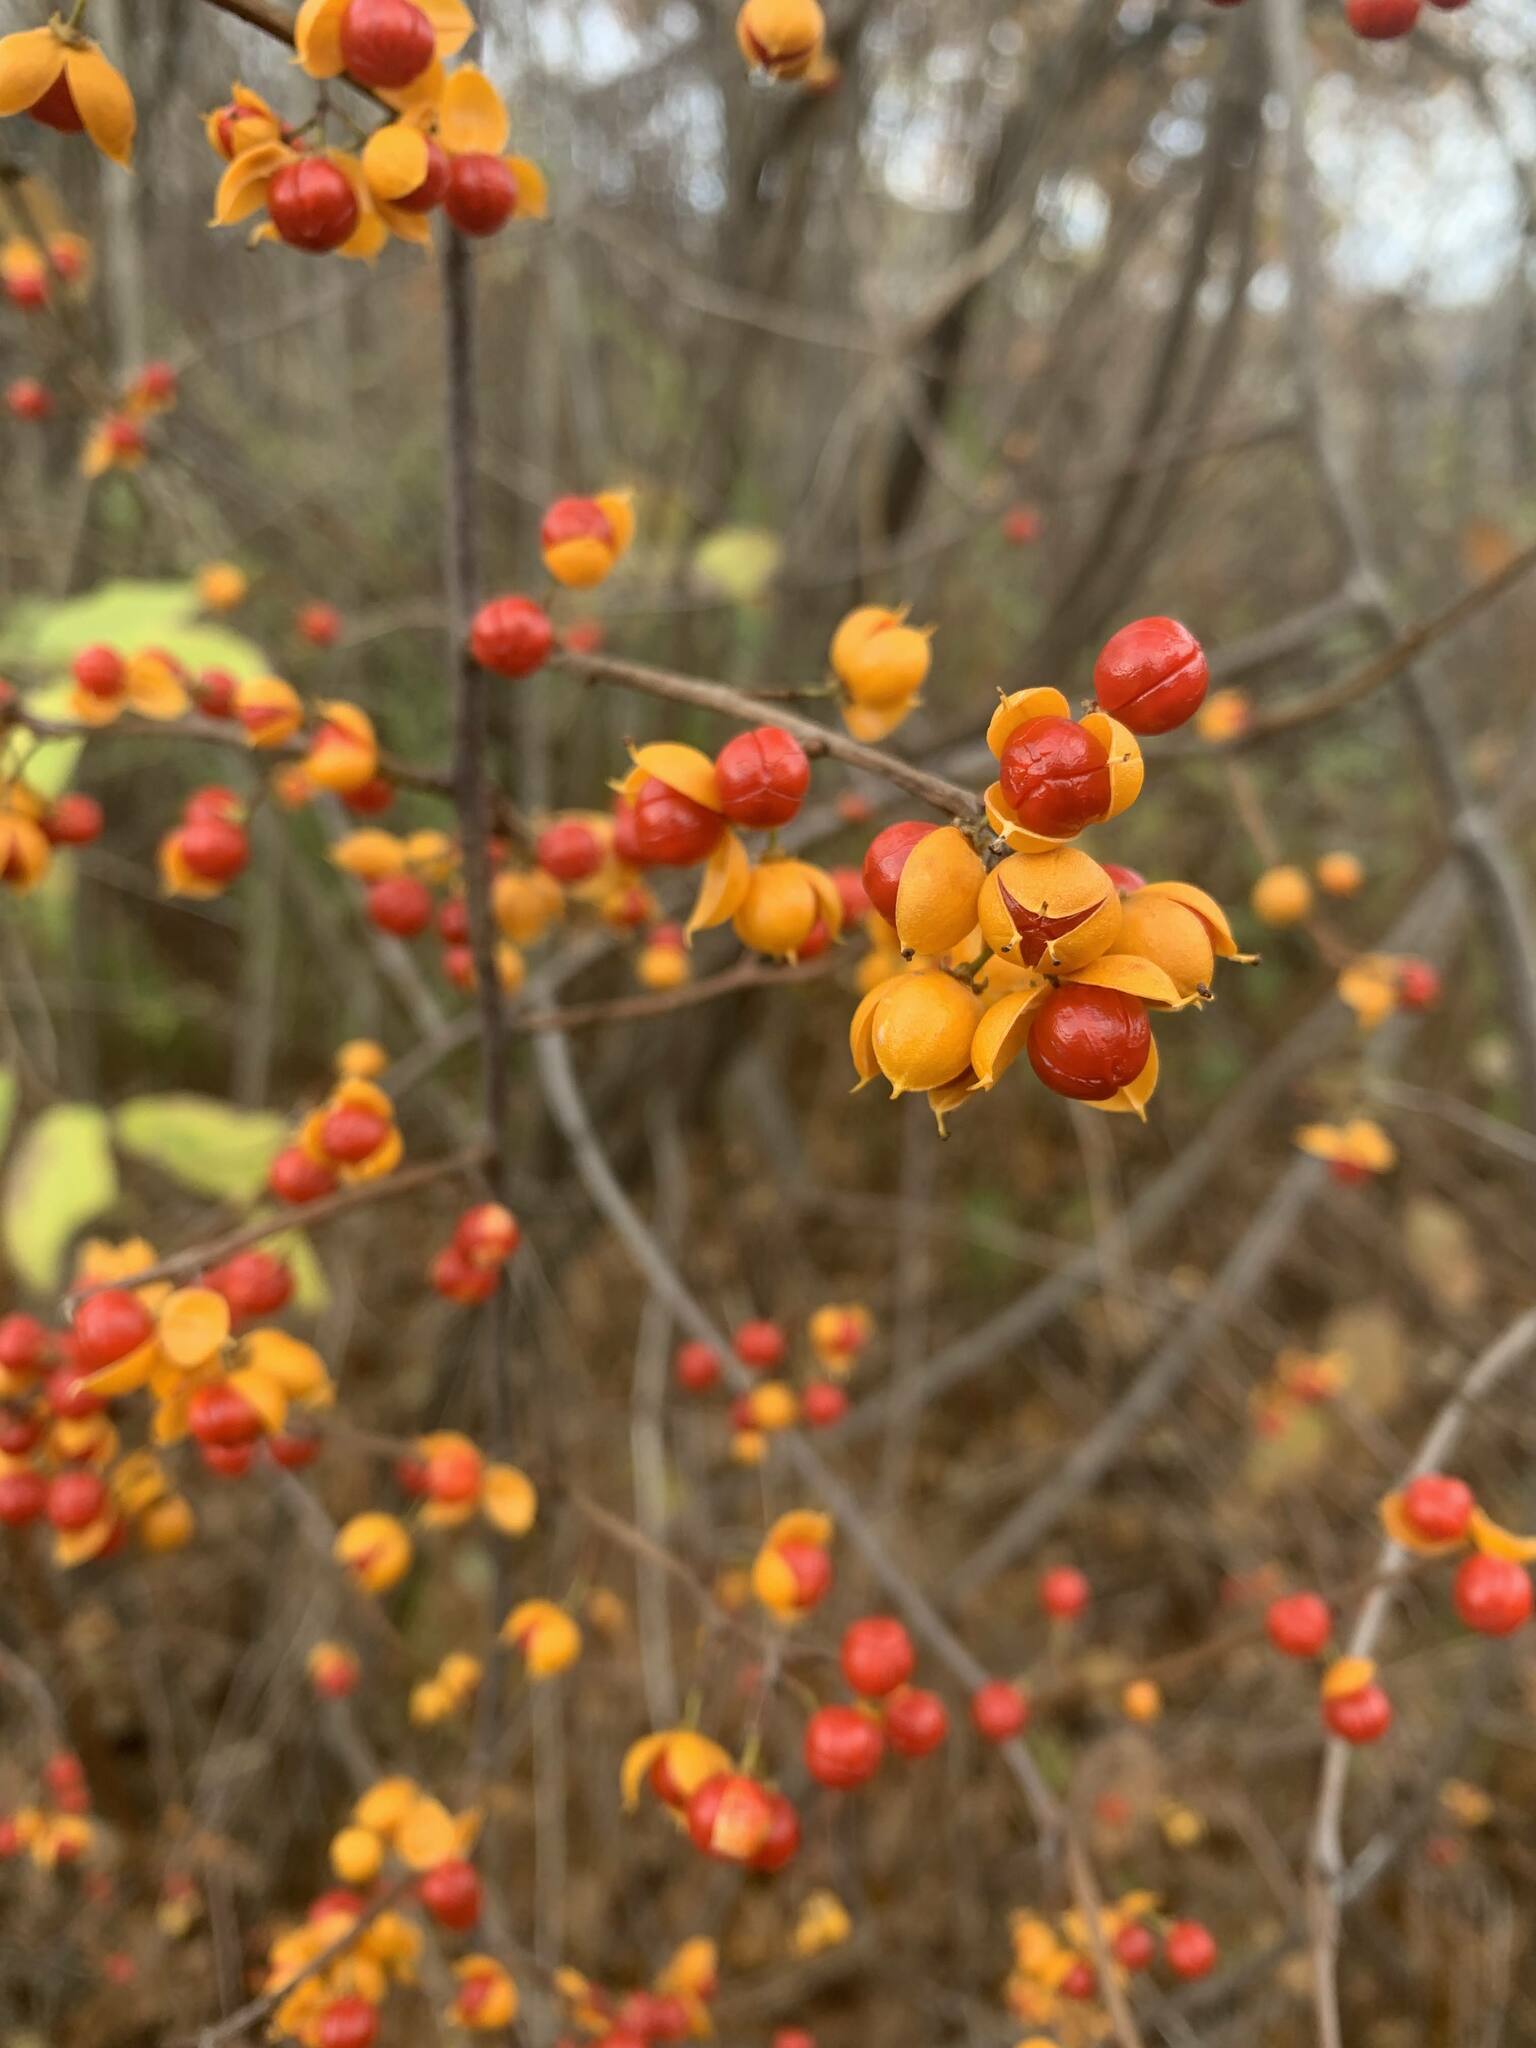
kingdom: Plantae
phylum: Tracheophyta
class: Magnoliopsida
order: Celastrales
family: Celastraceae
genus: Celastrus
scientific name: Celastrus orbiculatus
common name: Oriental bittersweet
